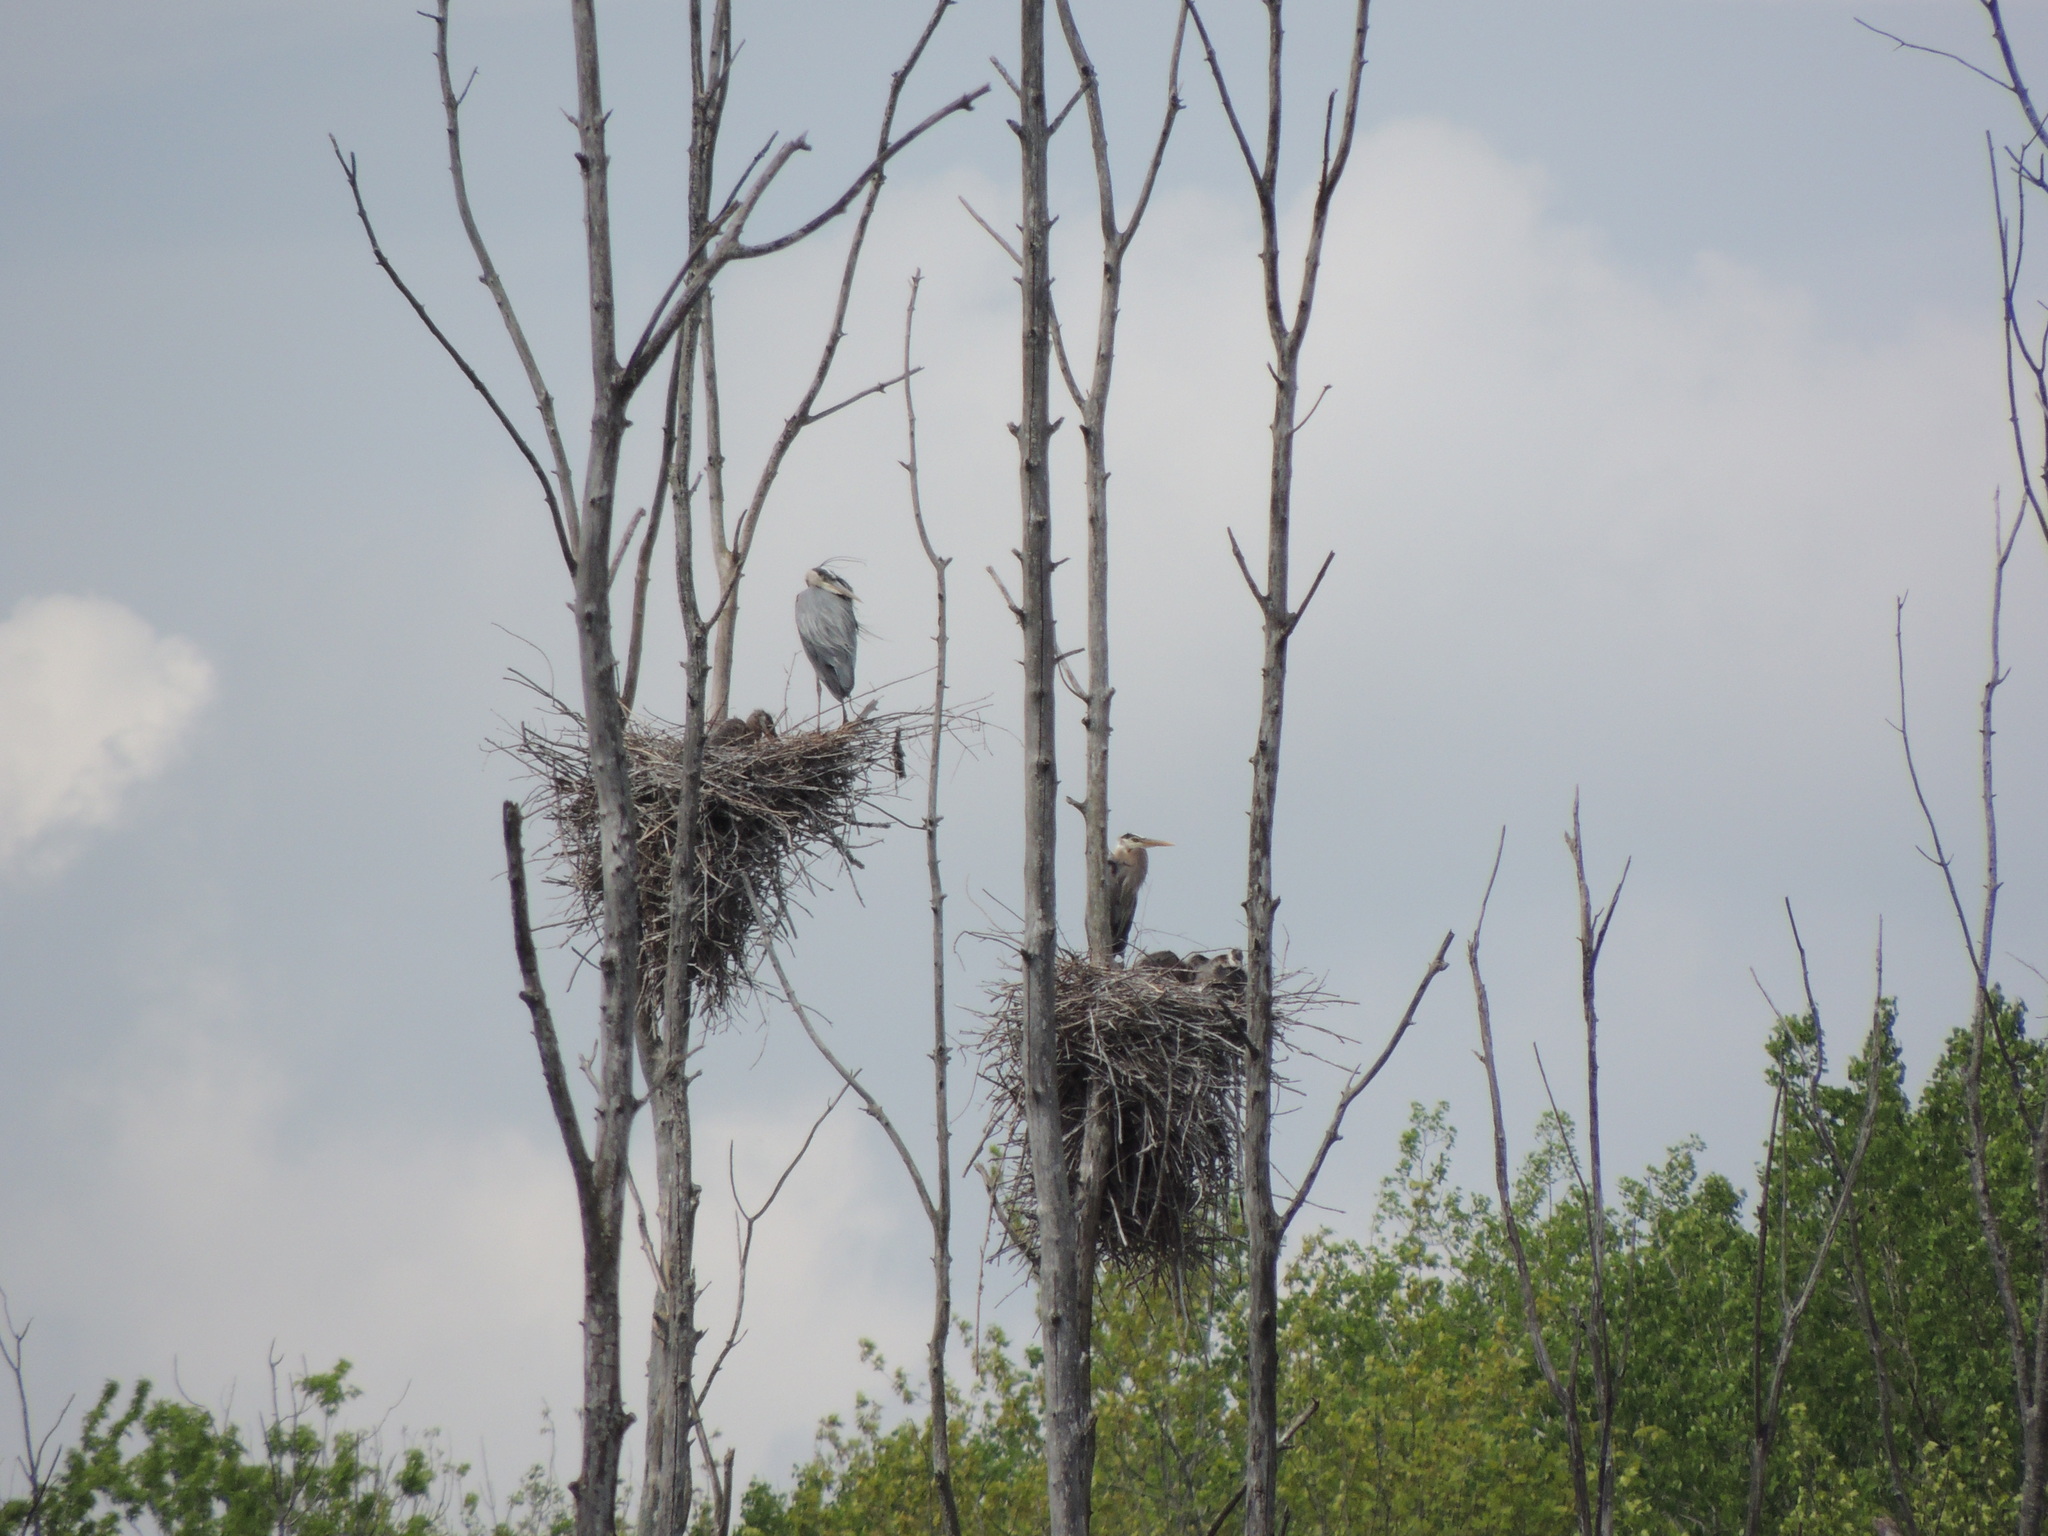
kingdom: Animalia
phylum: Chordata
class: Aves
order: Pelecaniformes
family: Ardeidae
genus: Ardea
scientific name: Ardea herodias
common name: Great blue heron
